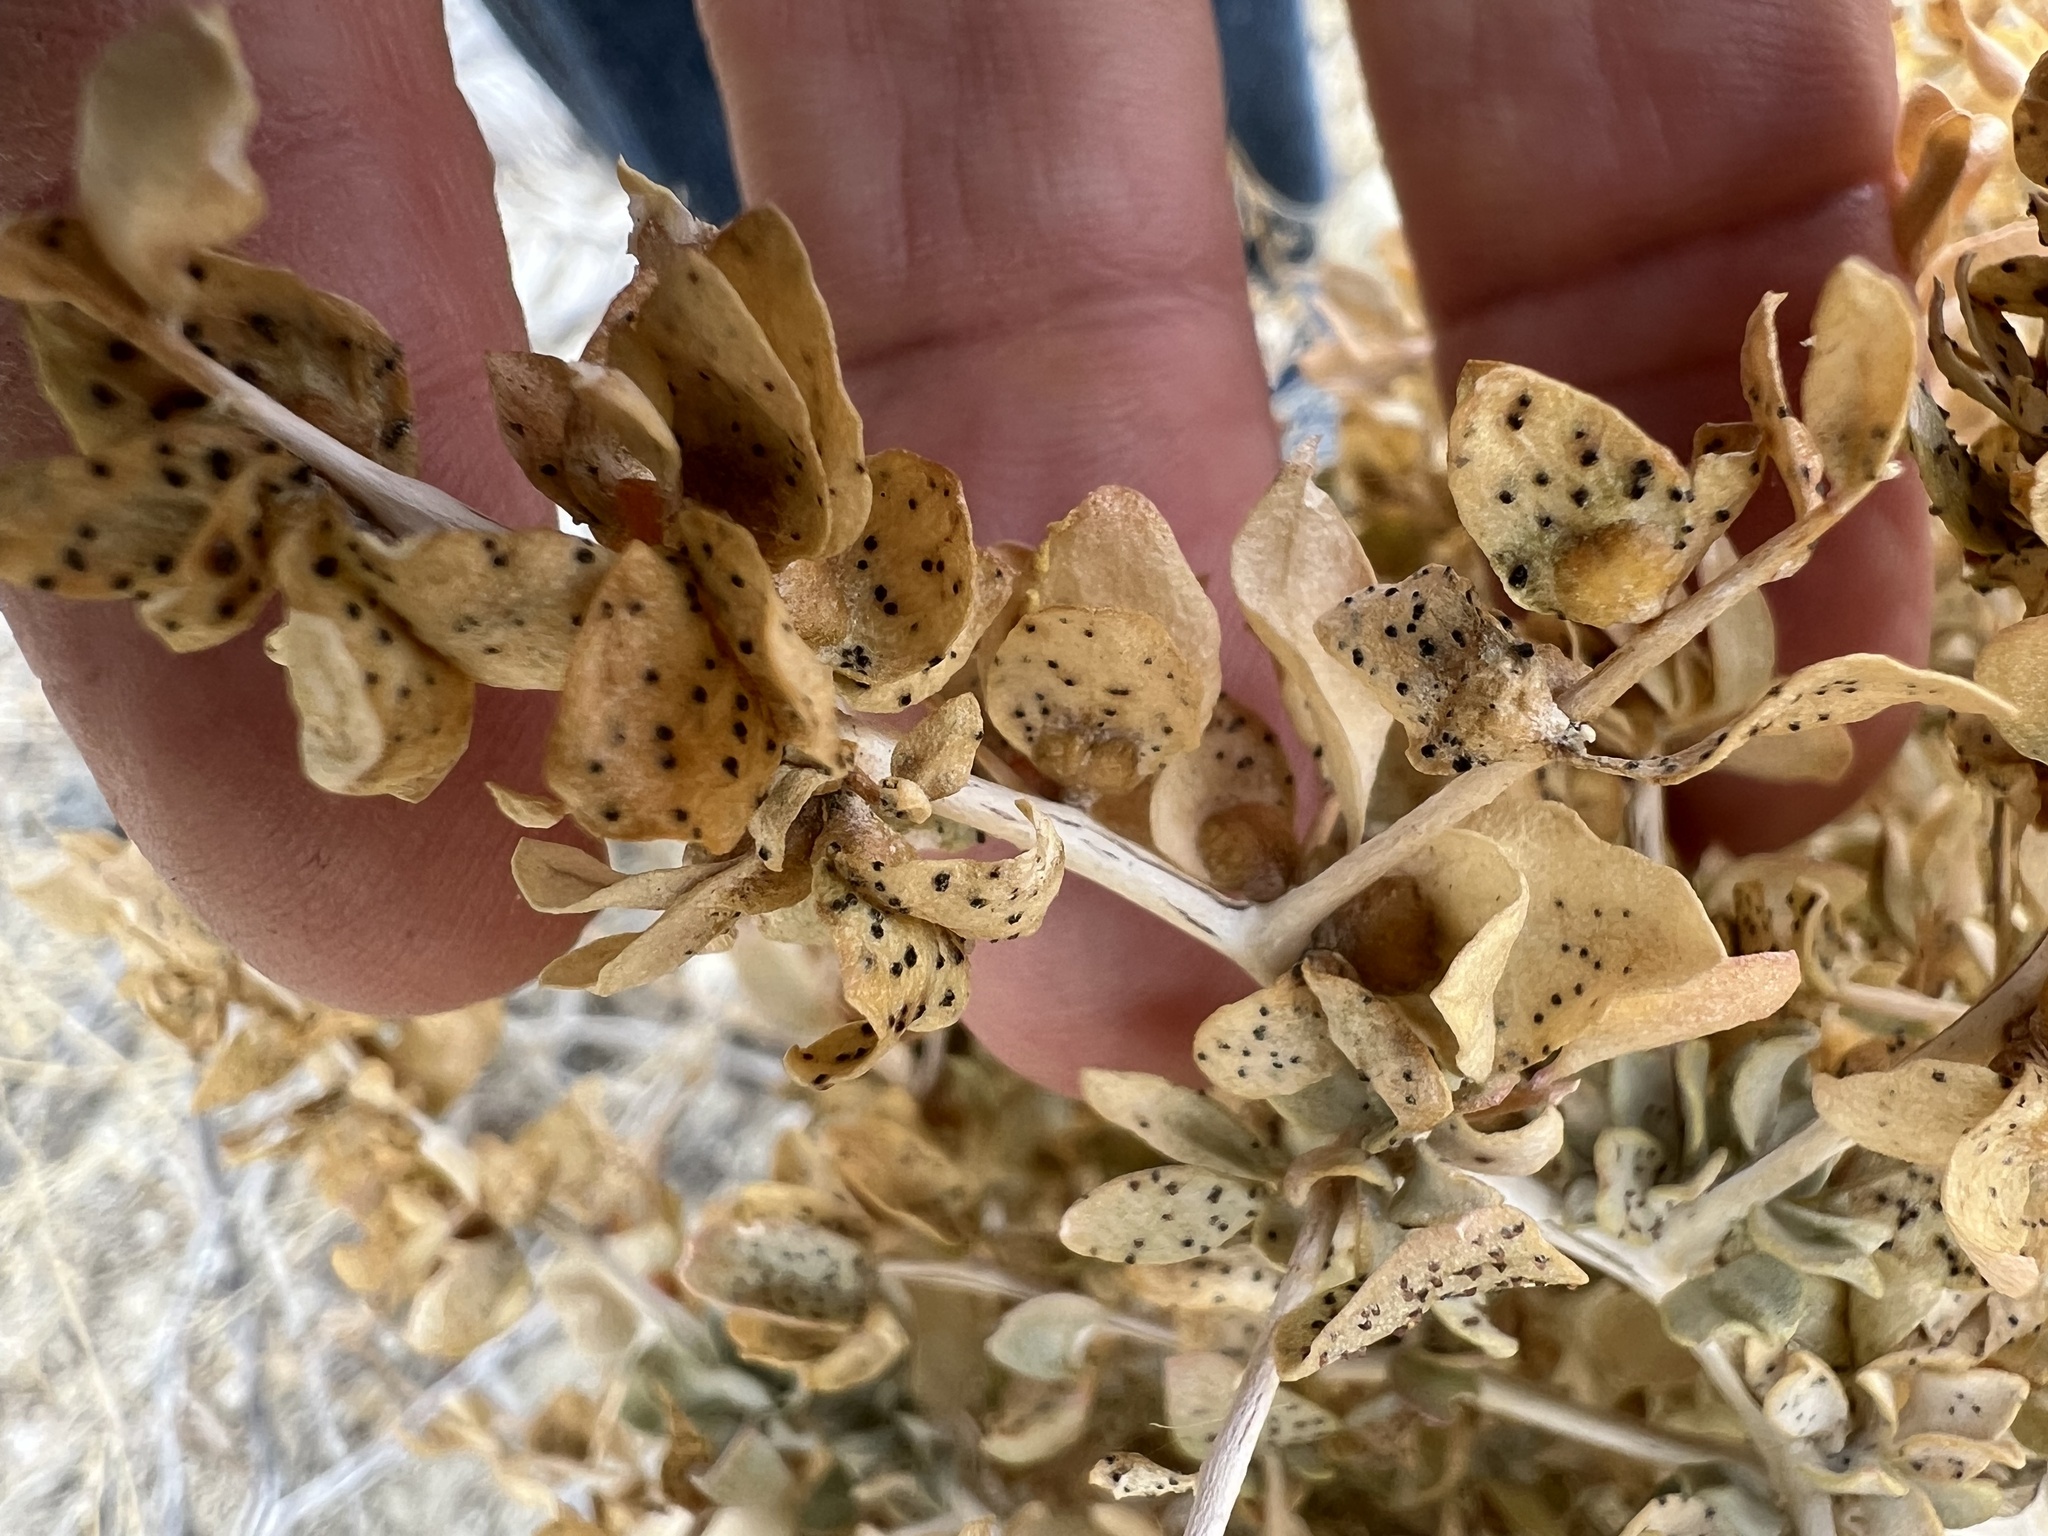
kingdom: Plantae
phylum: Tracheophyta
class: Magnoliopsida
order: Caryophyllales
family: Amaranthaceae
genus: Atriplex
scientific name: Atriplex confertifolia
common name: Shadscale
